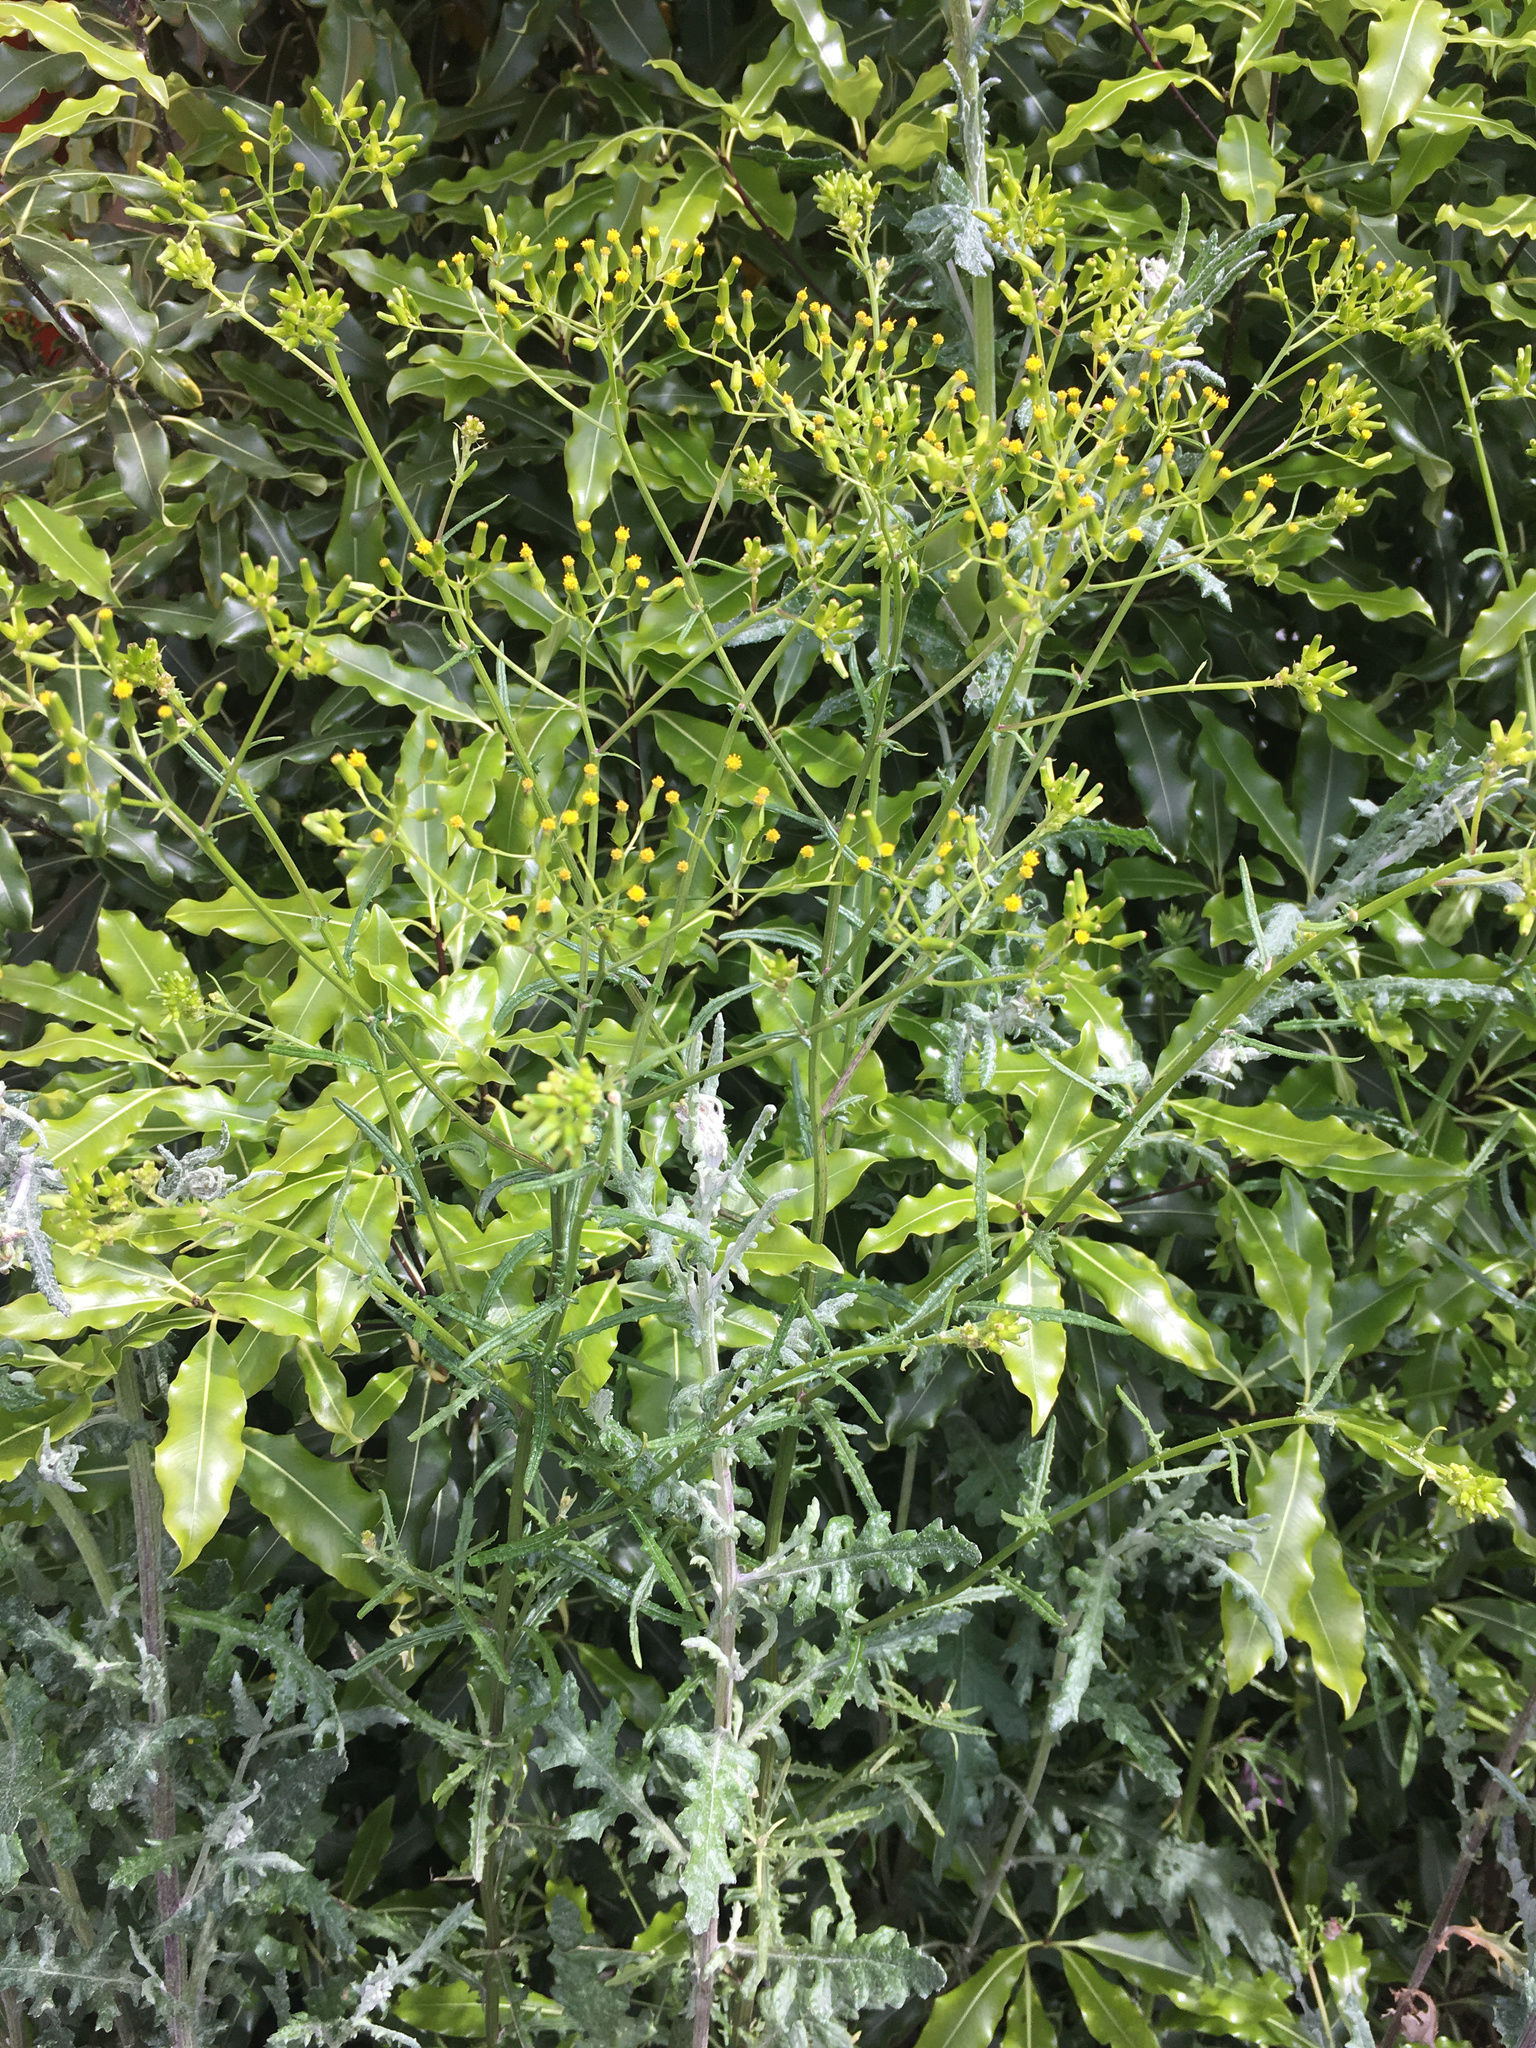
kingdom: Plantae
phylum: Tracheophyta
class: Magnoliopsida
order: Asterales
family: Asteraceae
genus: Senecio
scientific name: Senecio hispidulus
